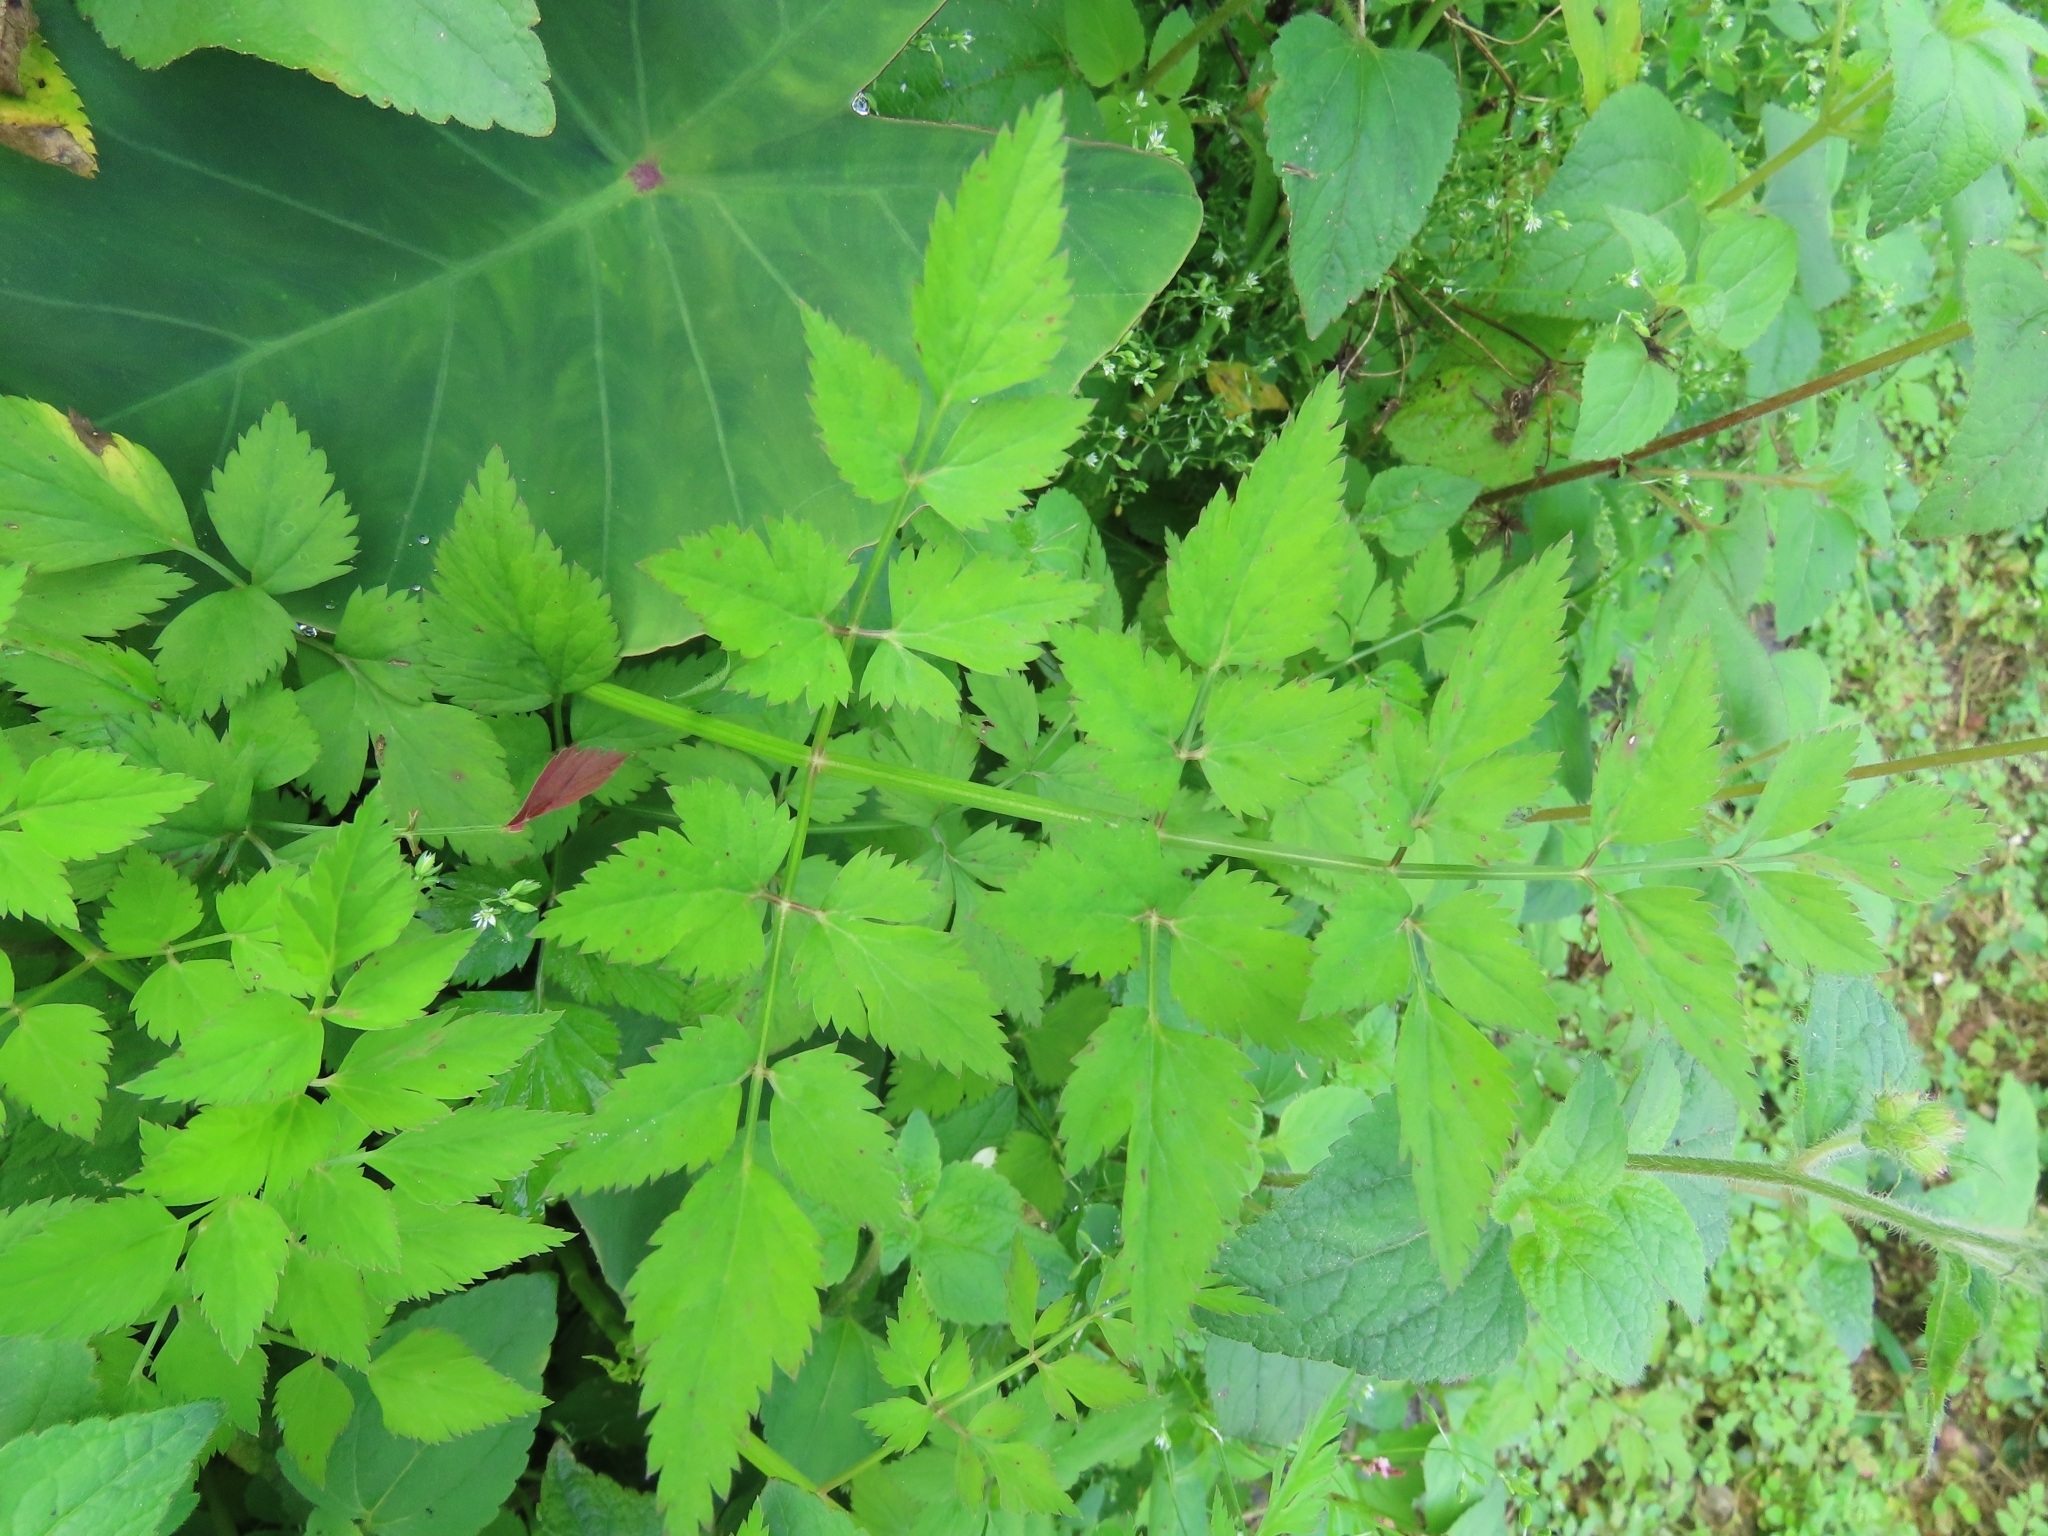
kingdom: Plantae
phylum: Tracheophyta
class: Magnoliopsida
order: Apiales
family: Apiaceae
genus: Oenanthe
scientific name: Oenanthe javanica
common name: Java water-dropwort
